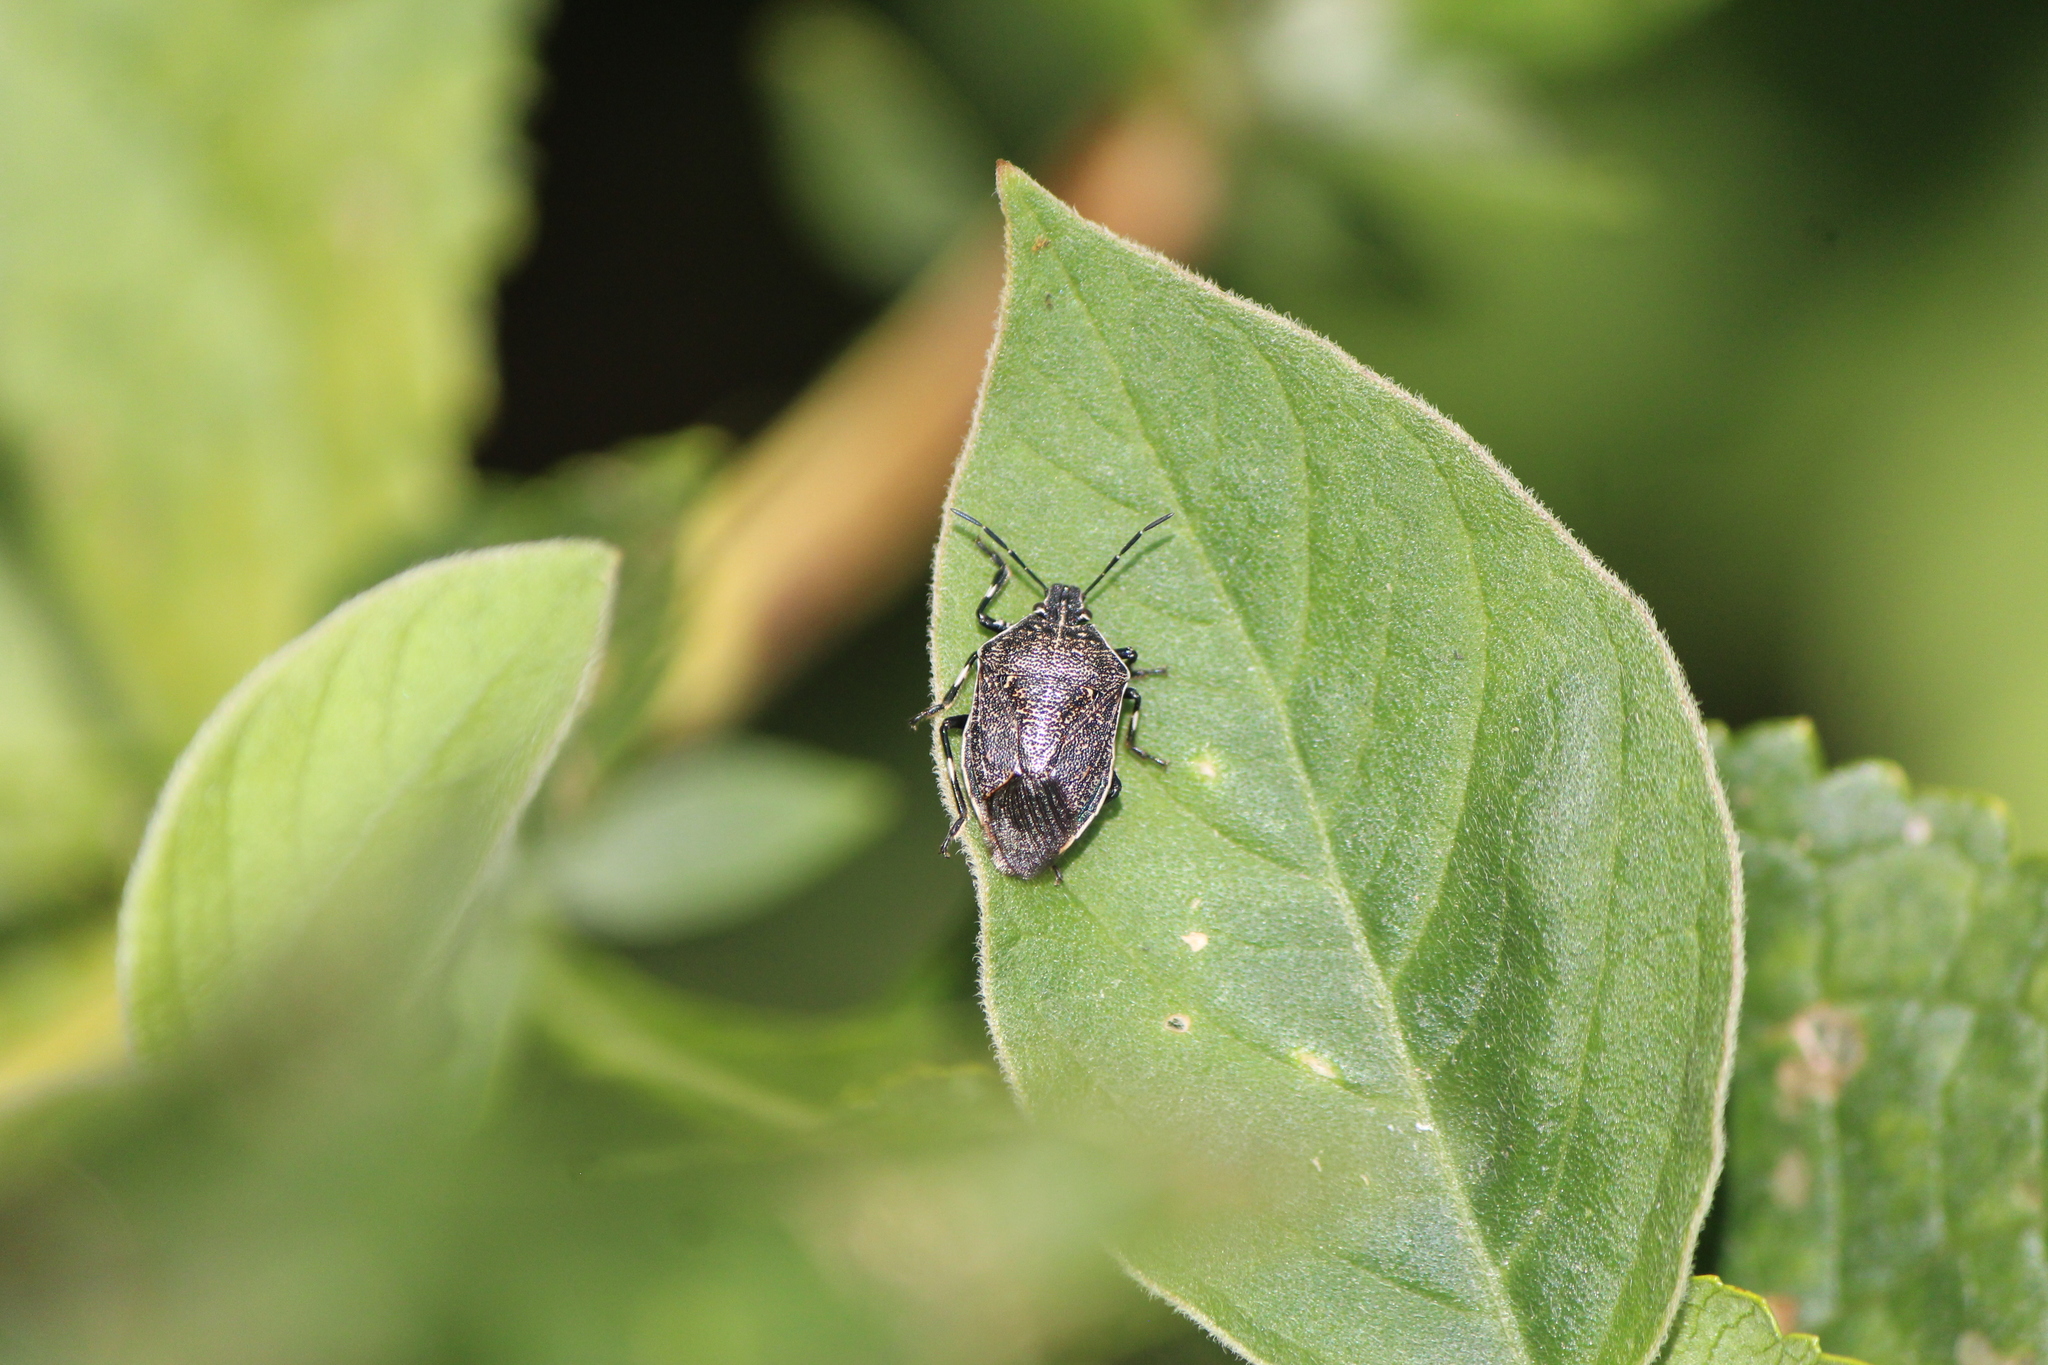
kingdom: Animalia
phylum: Arthropoda
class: Insecta
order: Hemiptera
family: Pentatomidae
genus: Apateticus
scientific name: Apateticus lineolatus
